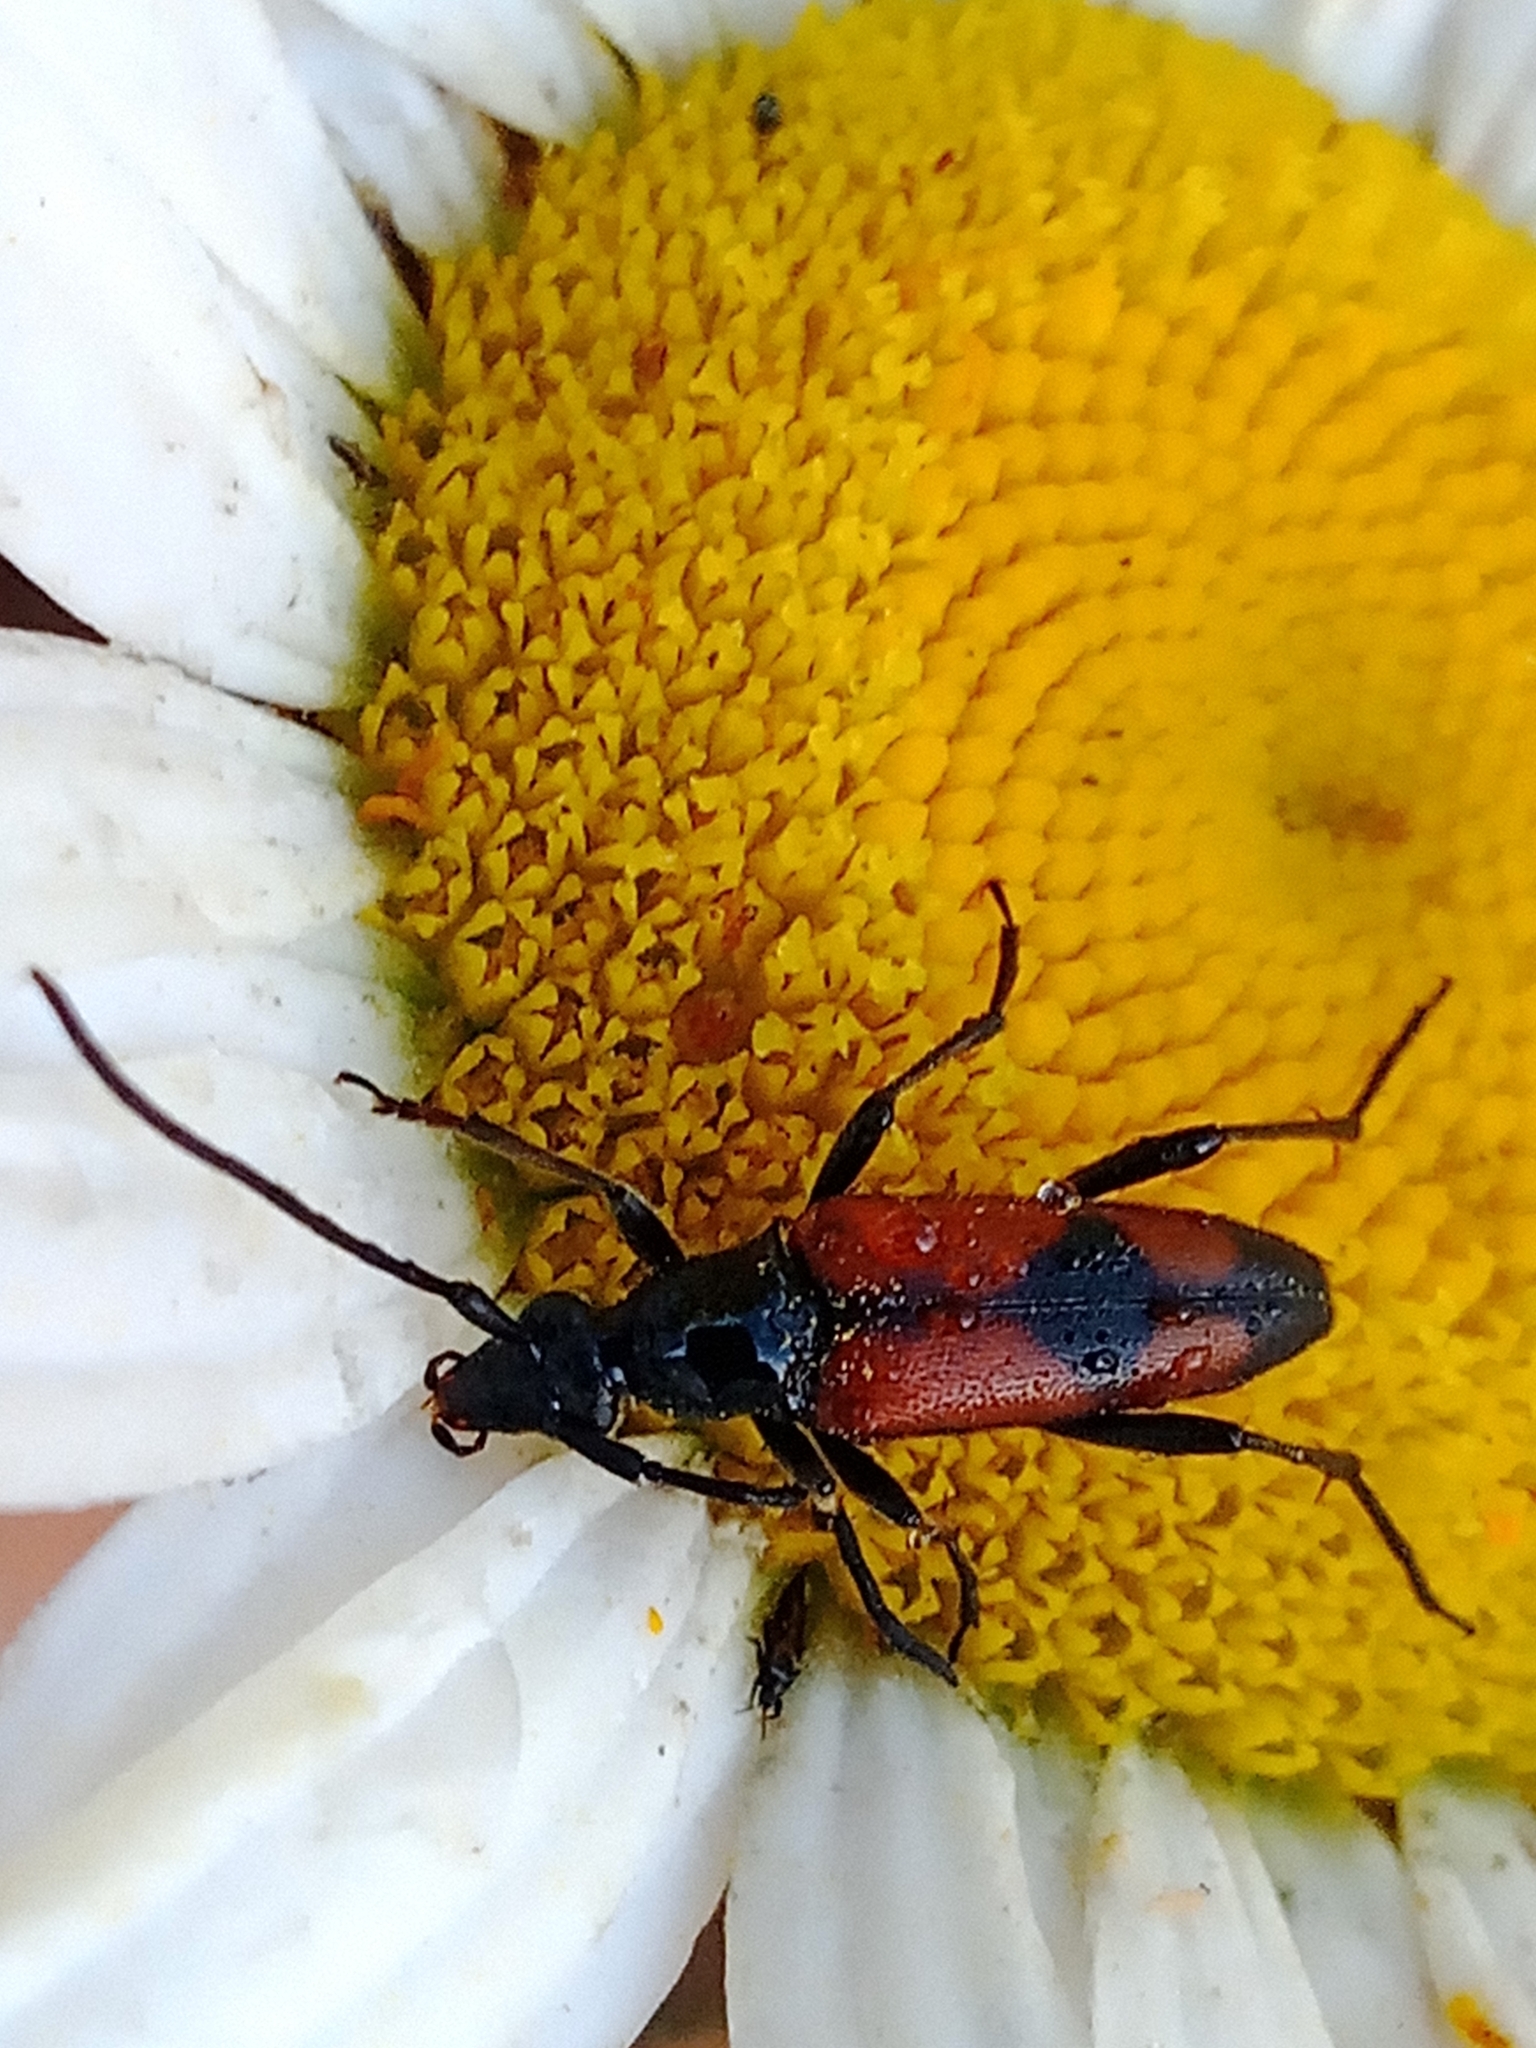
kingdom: Animalia
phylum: Arthropoda
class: Insecta
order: Coleoptera
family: Cerambycidae
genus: Stenurella
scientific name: Stenurella bifasciata
